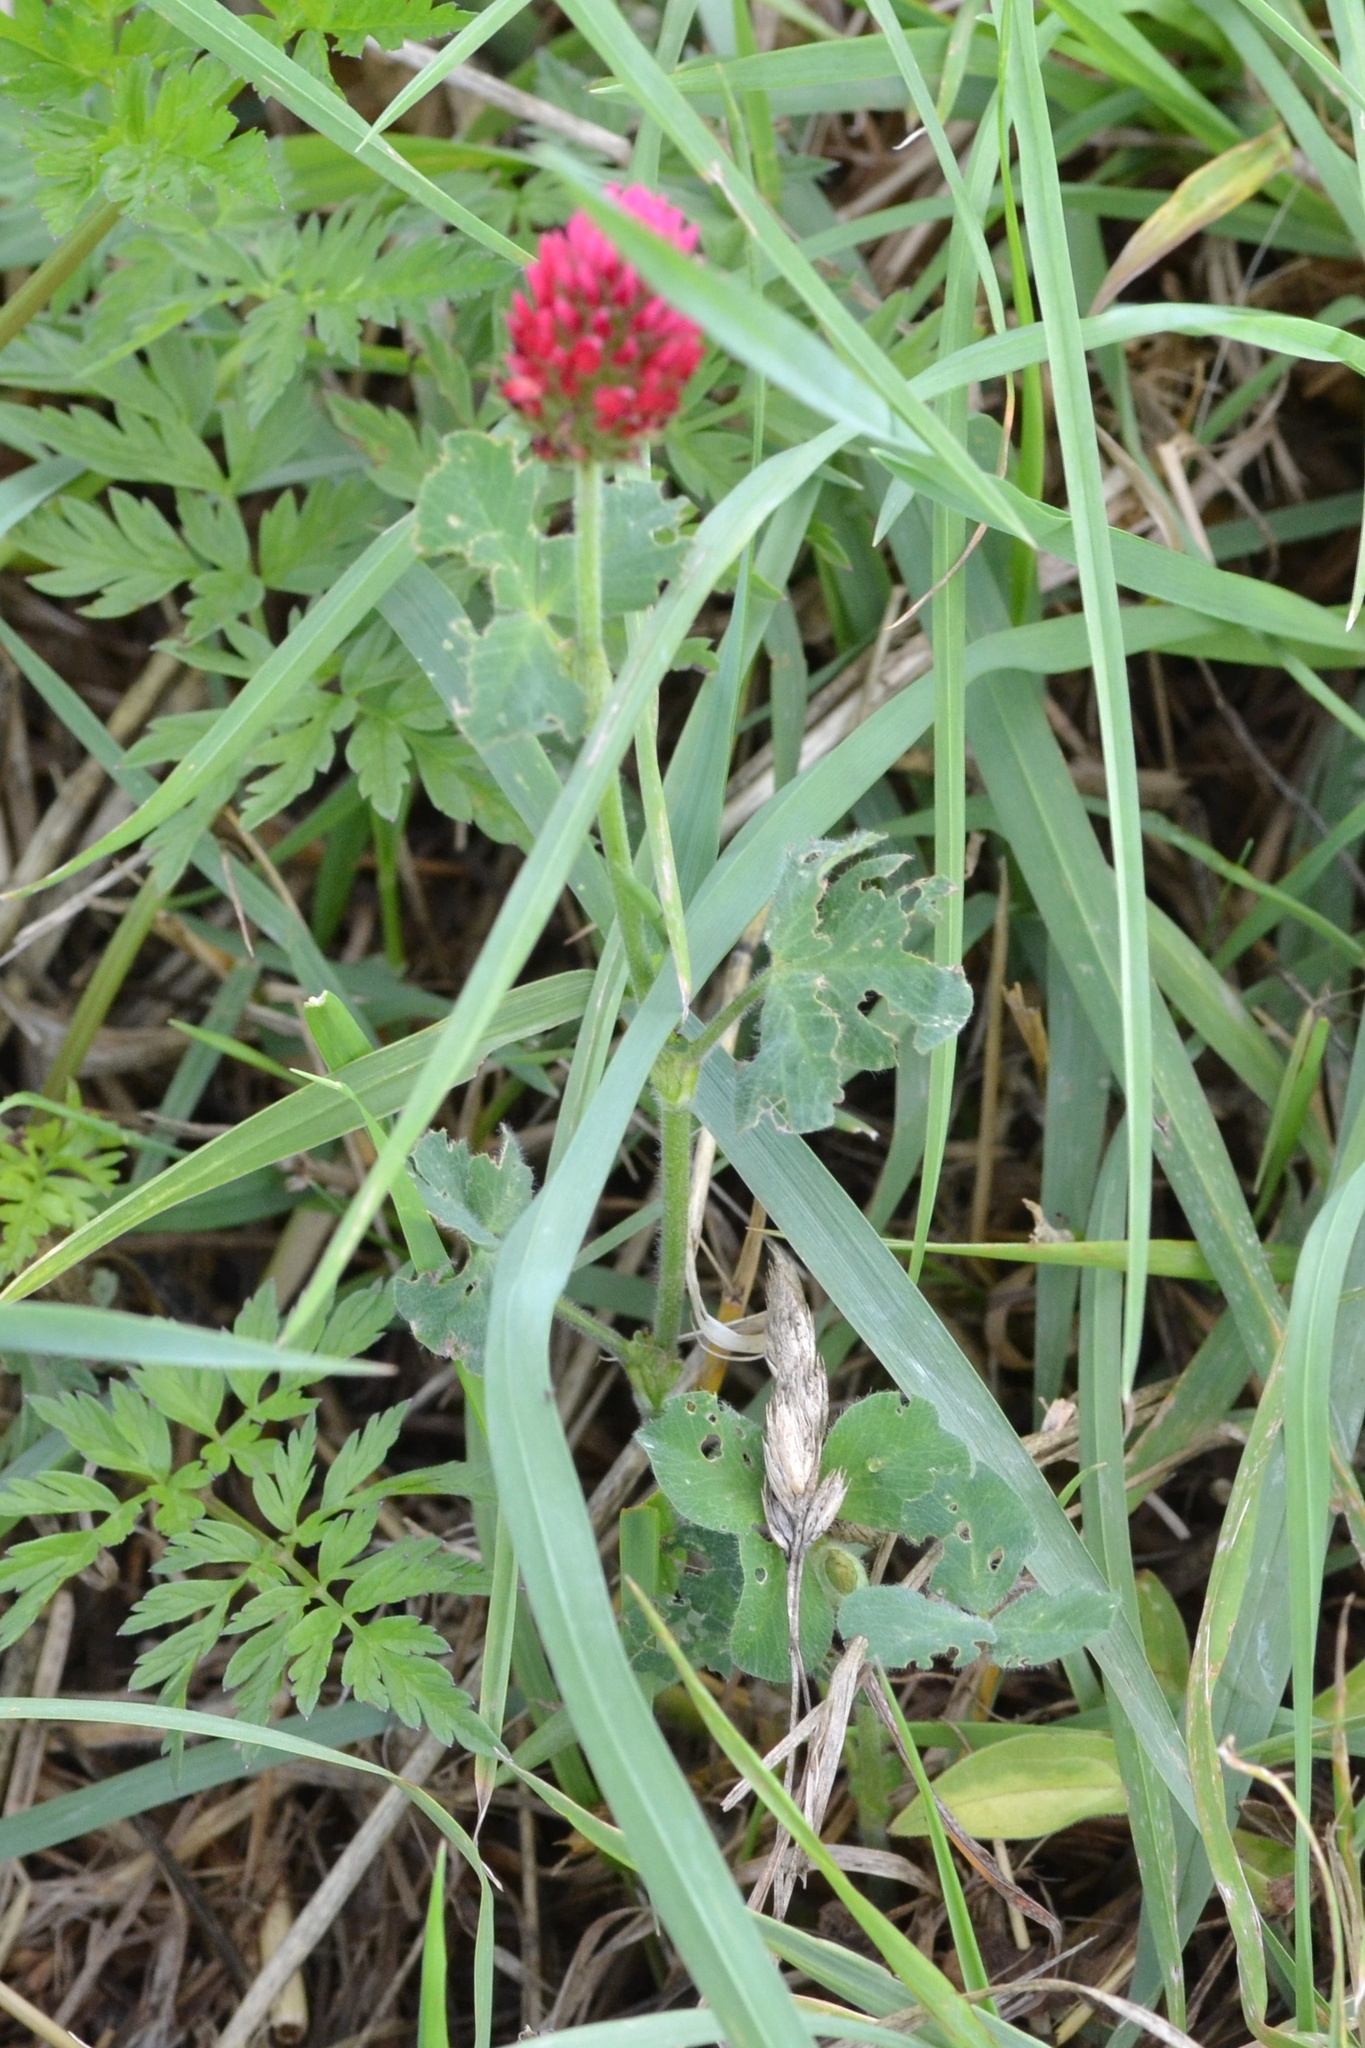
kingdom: Plantae
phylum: Tracheophyta
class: Magnoliopsida
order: Fabales
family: Fabaceae
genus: Trifolium
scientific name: Trifolium incarnatum
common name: Crimson clover
